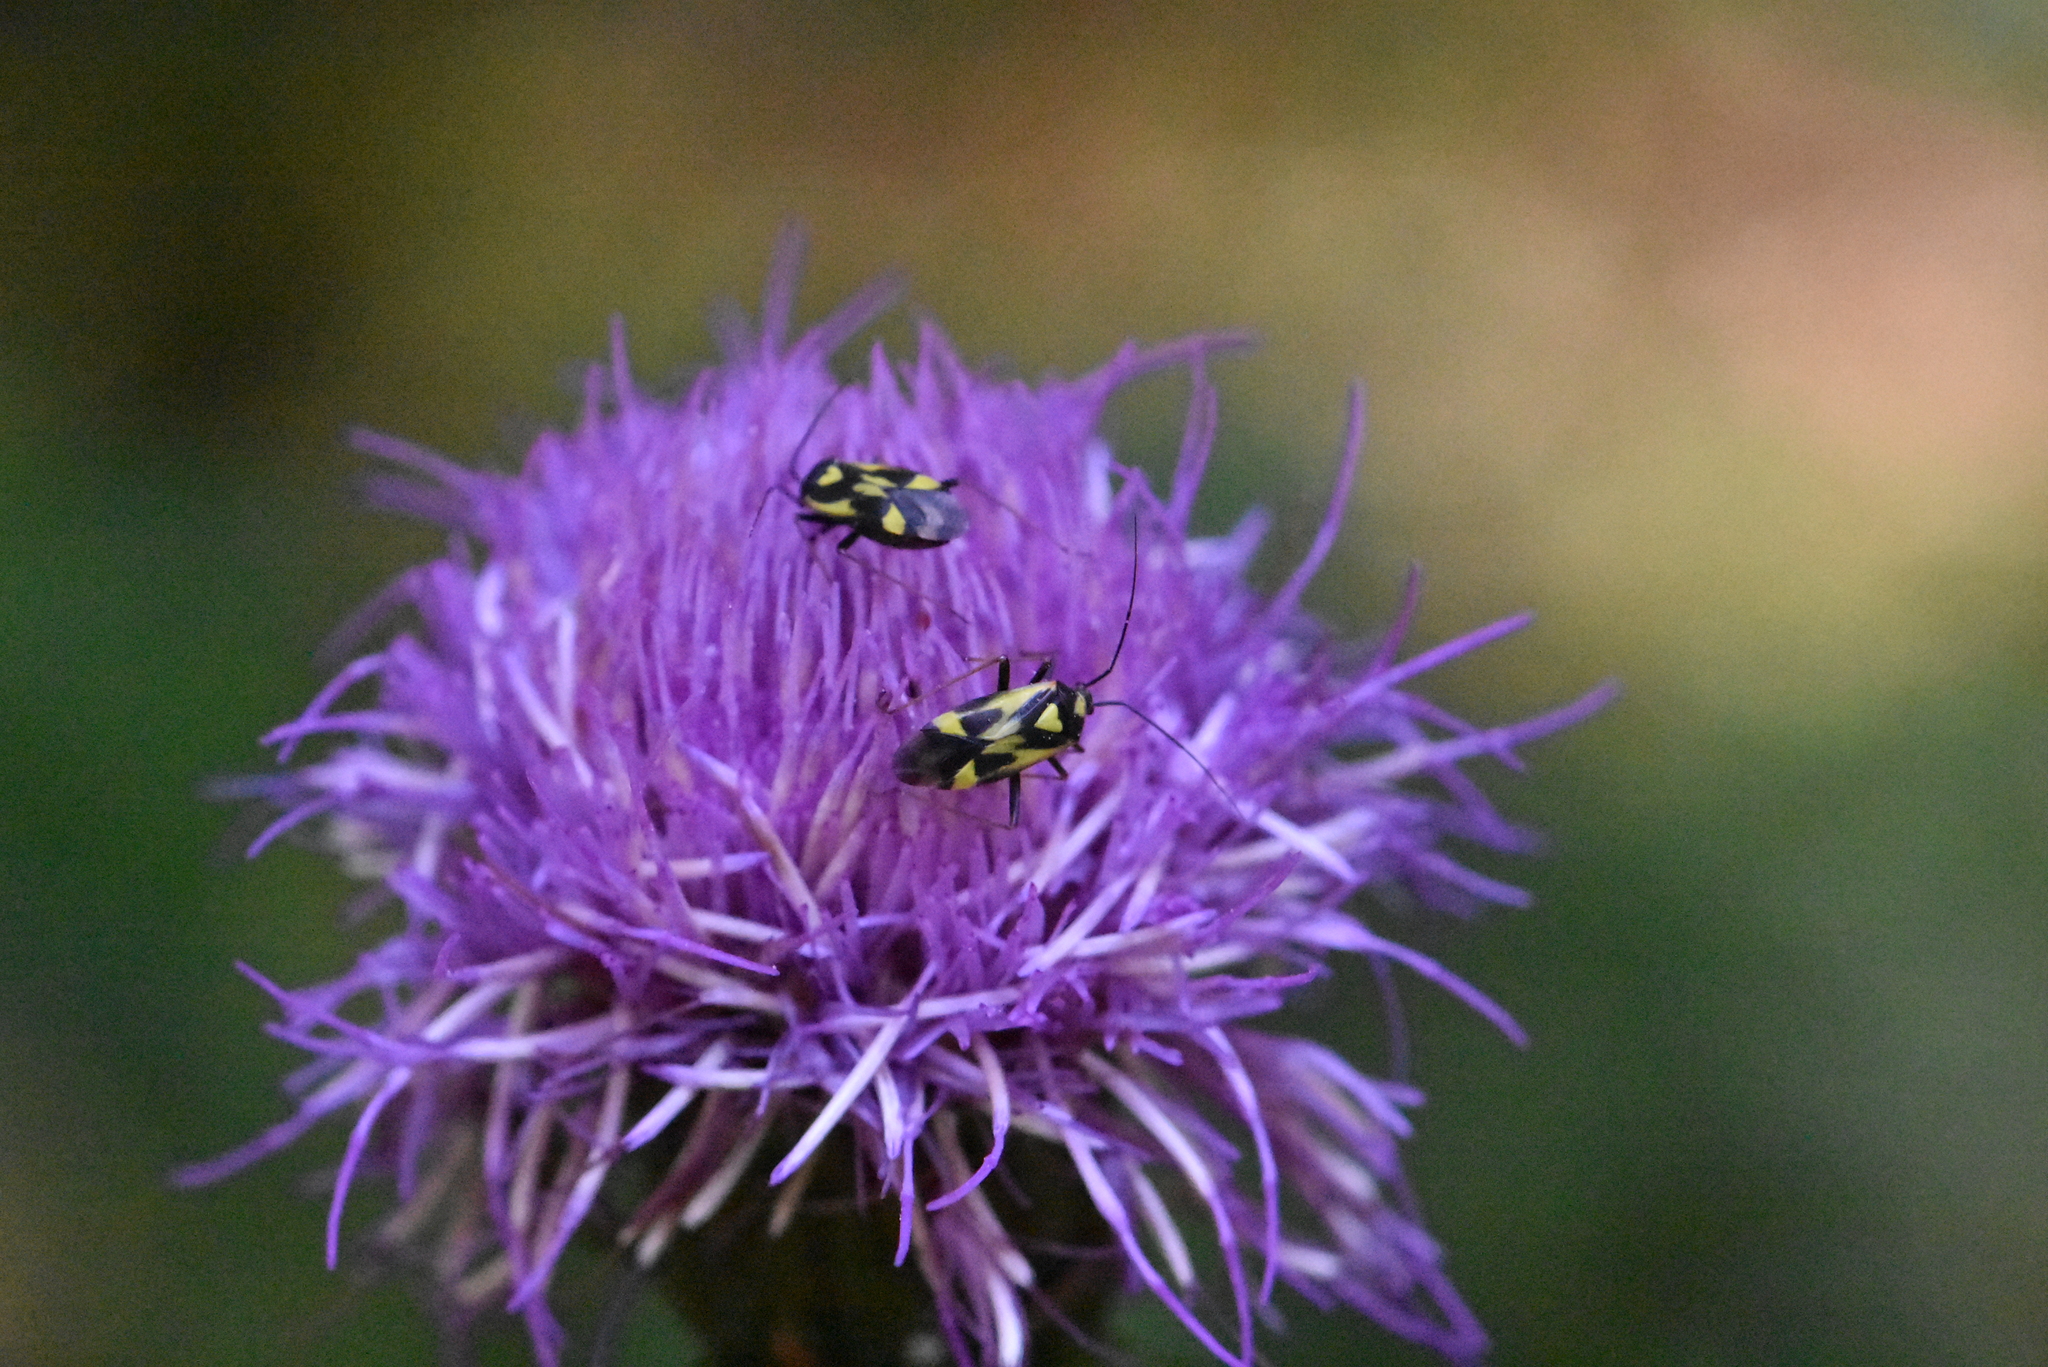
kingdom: Animalia
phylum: Arthropoda
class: Insecta
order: Hemiptera
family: Miridae
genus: Grypocoris
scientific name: Grypocoris sexguttatus
